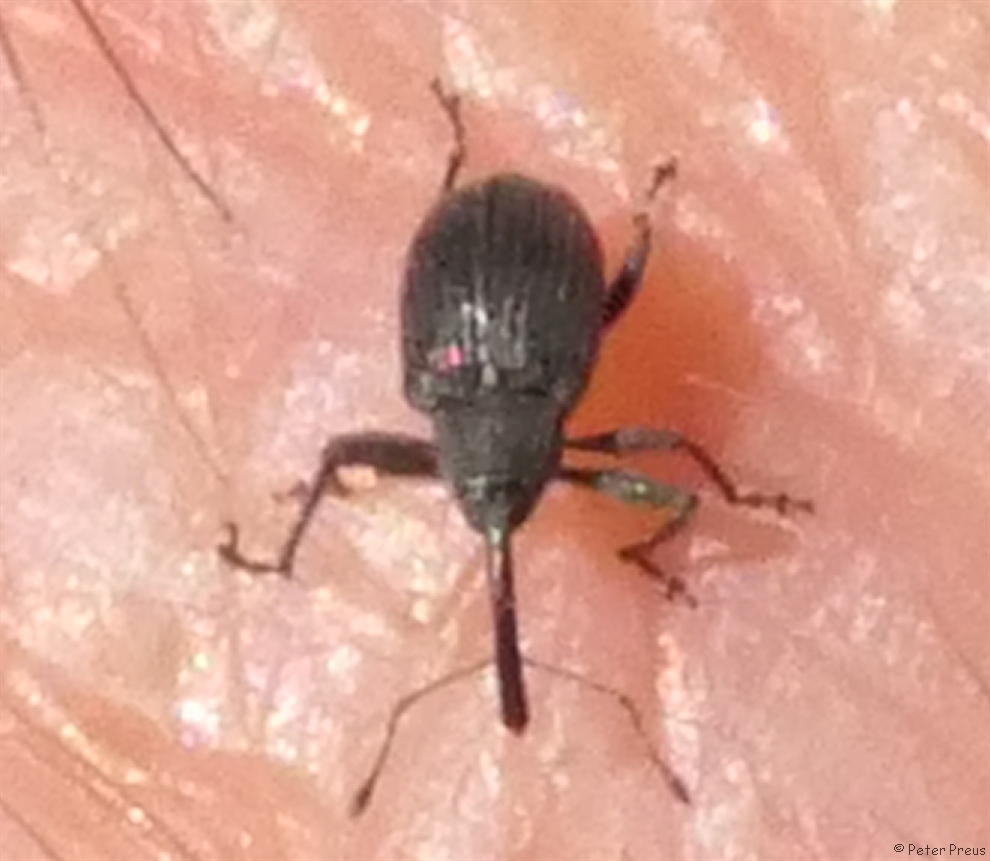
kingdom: Animalia
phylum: Arthropoda
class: Insecta
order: Coleoptera
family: Curculionidae
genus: Anthonomus
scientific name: Anthonomus rubi
